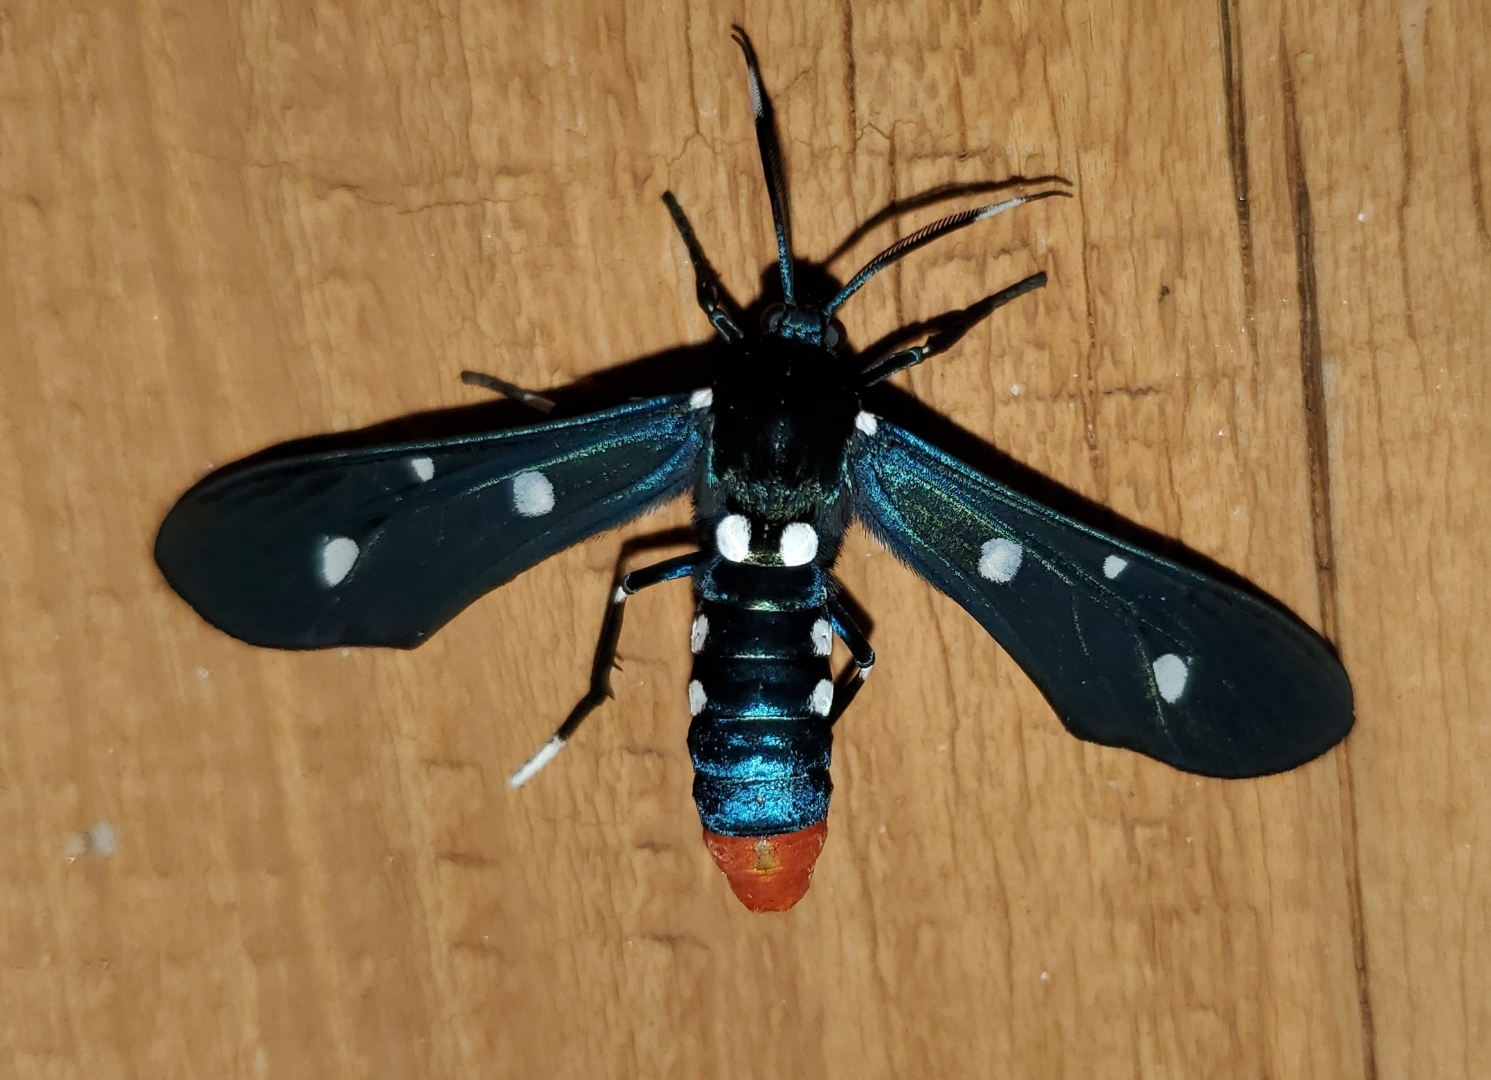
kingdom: Animalia
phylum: Arthropoda
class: Insecta
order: Lepidoptera
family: Erebidae
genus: Syntomeida
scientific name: Syntomeida epilais
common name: Polka-dot wasp moth
